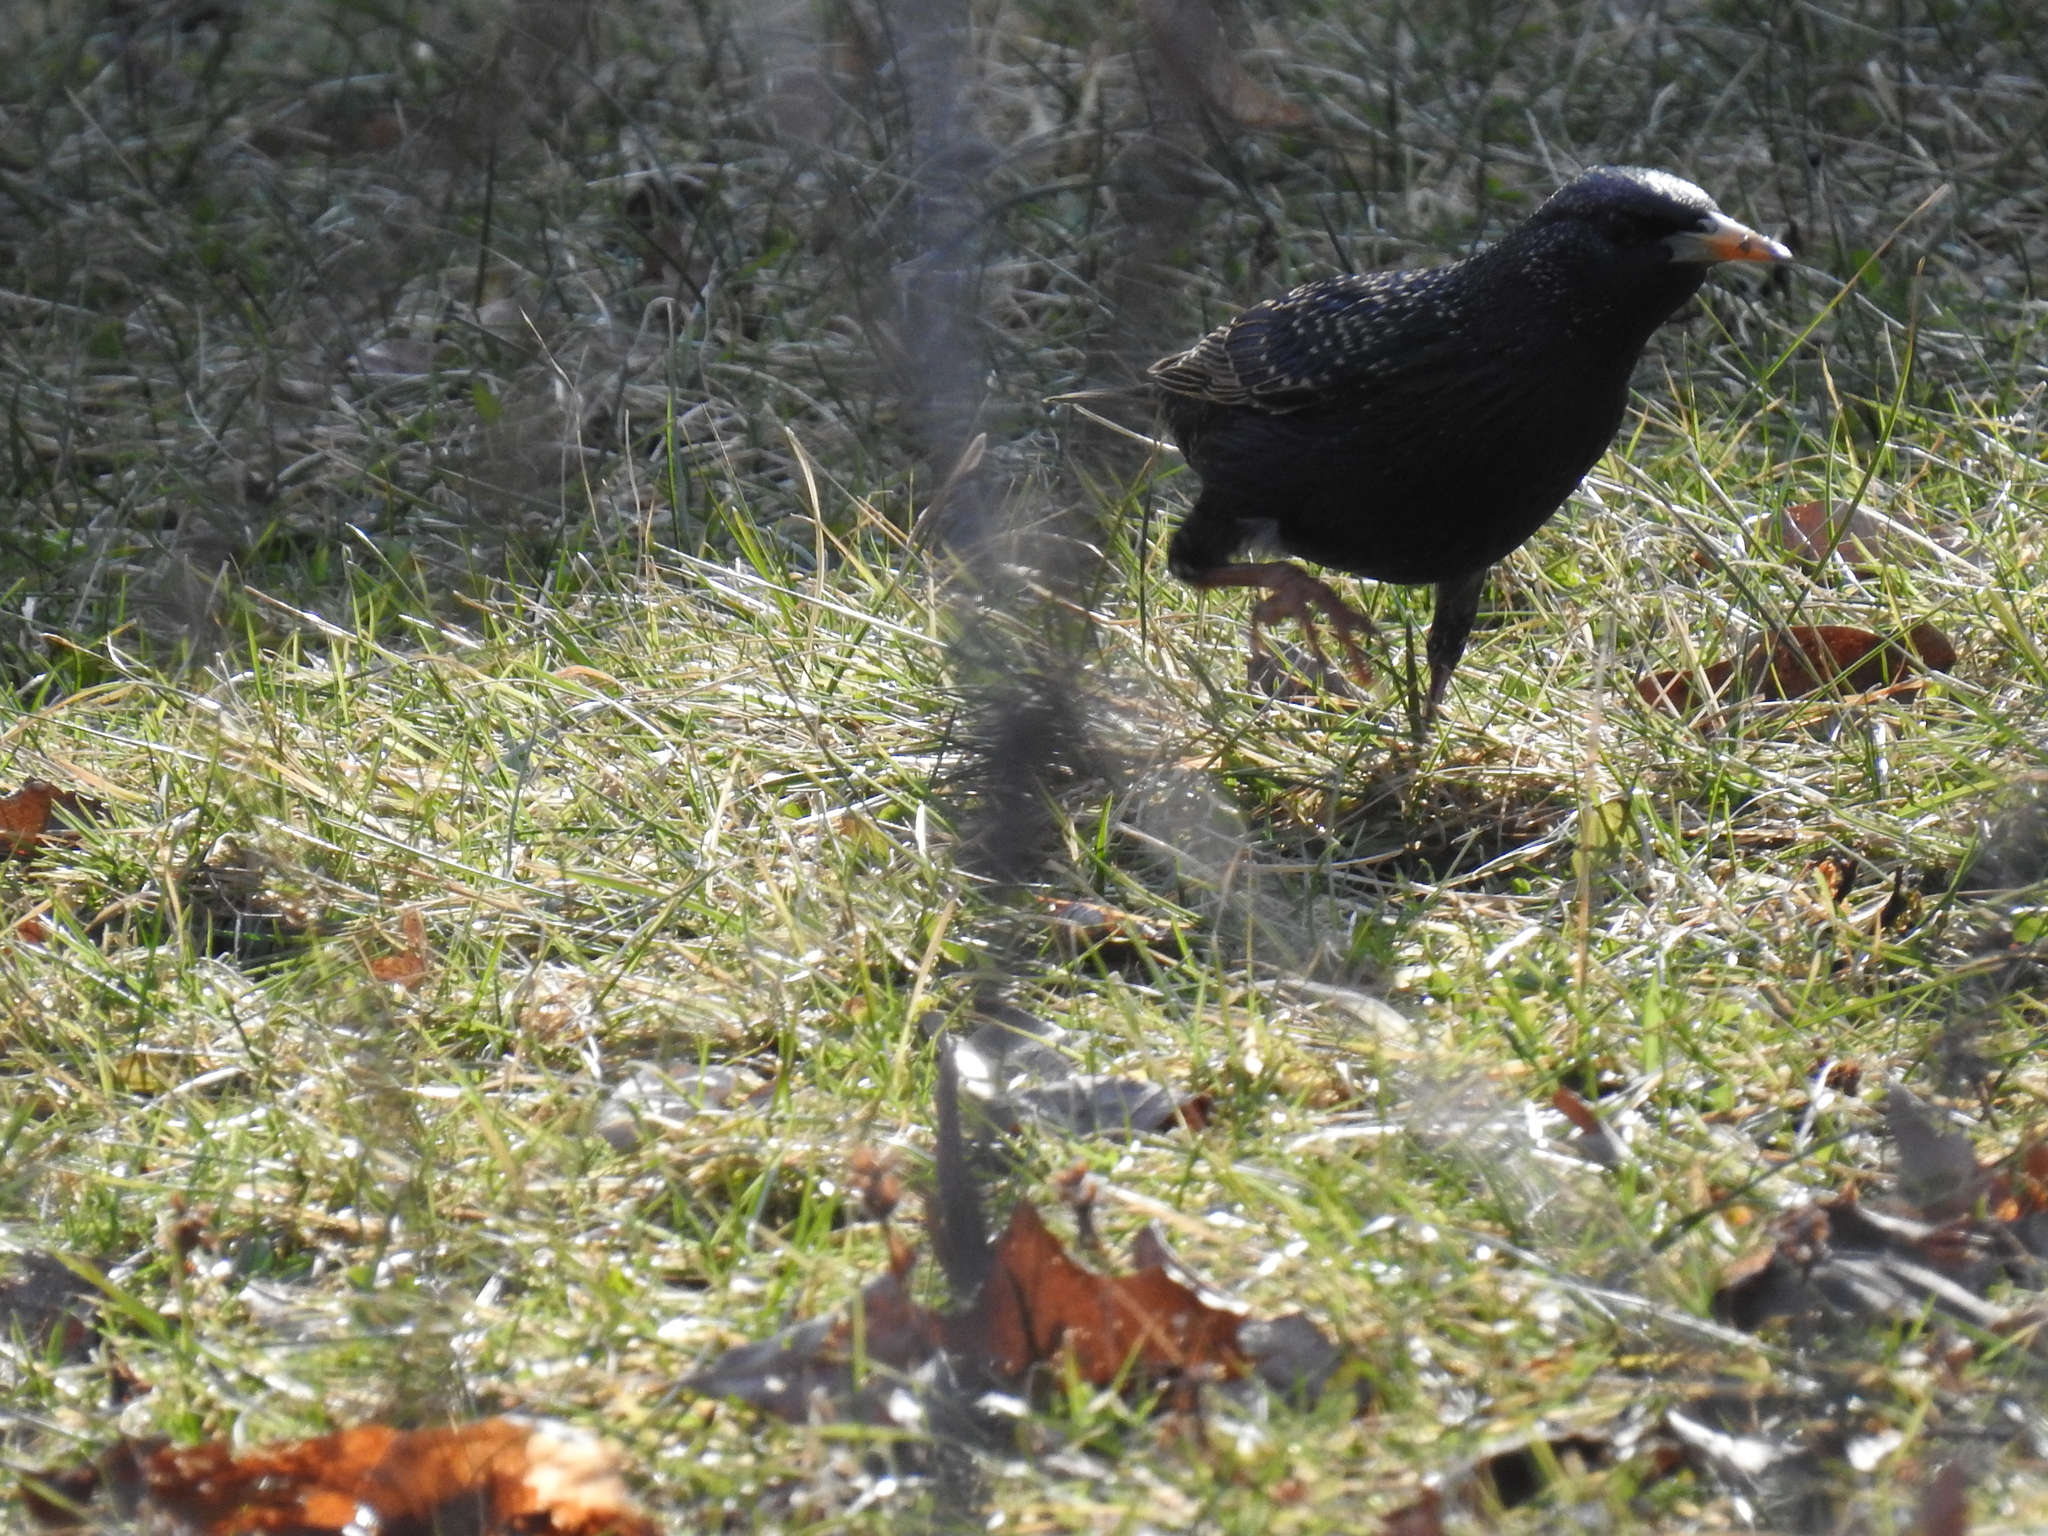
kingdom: Animalia
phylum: Chordata
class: Aves
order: Passeriformes
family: Sturnidae
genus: Sturnus
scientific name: Sturnus vulgaris
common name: Common starling
